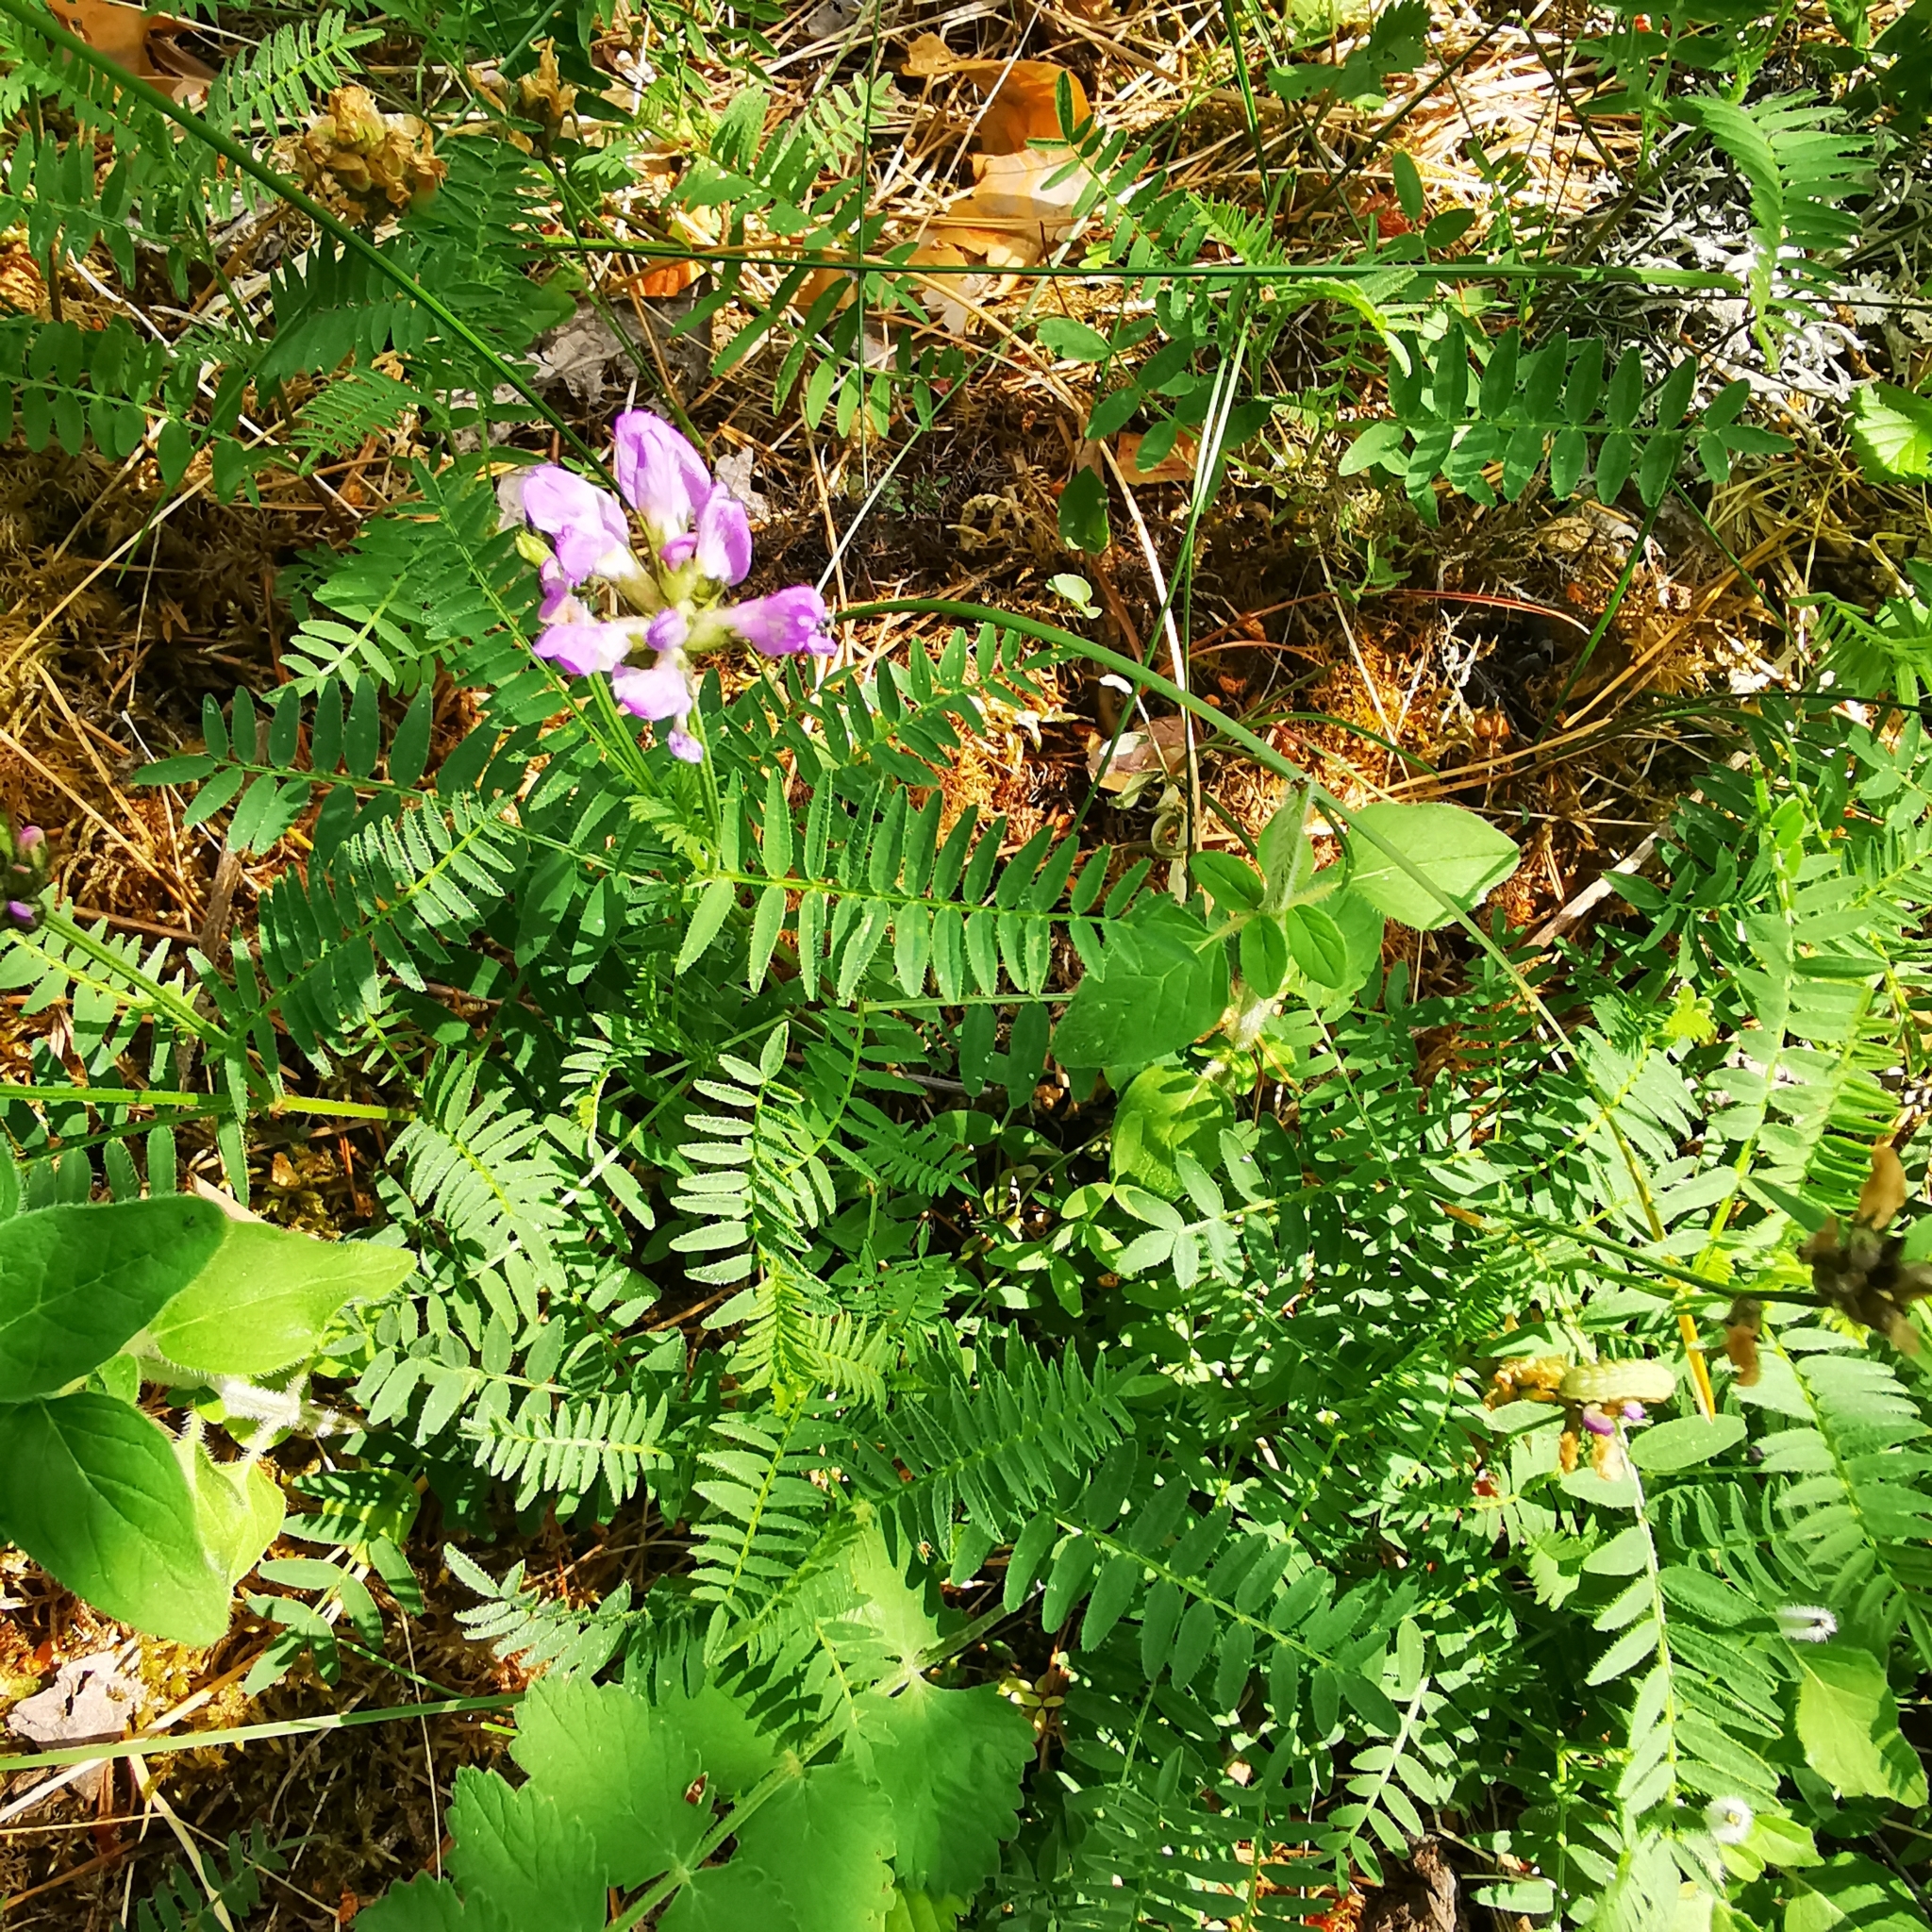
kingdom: Plantae
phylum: Tracheophyta
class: Magnoliopsida
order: Fabales
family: Fabaceae
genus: Astragalus
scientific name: Astragalus danicus
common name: Purple milk-vetch
